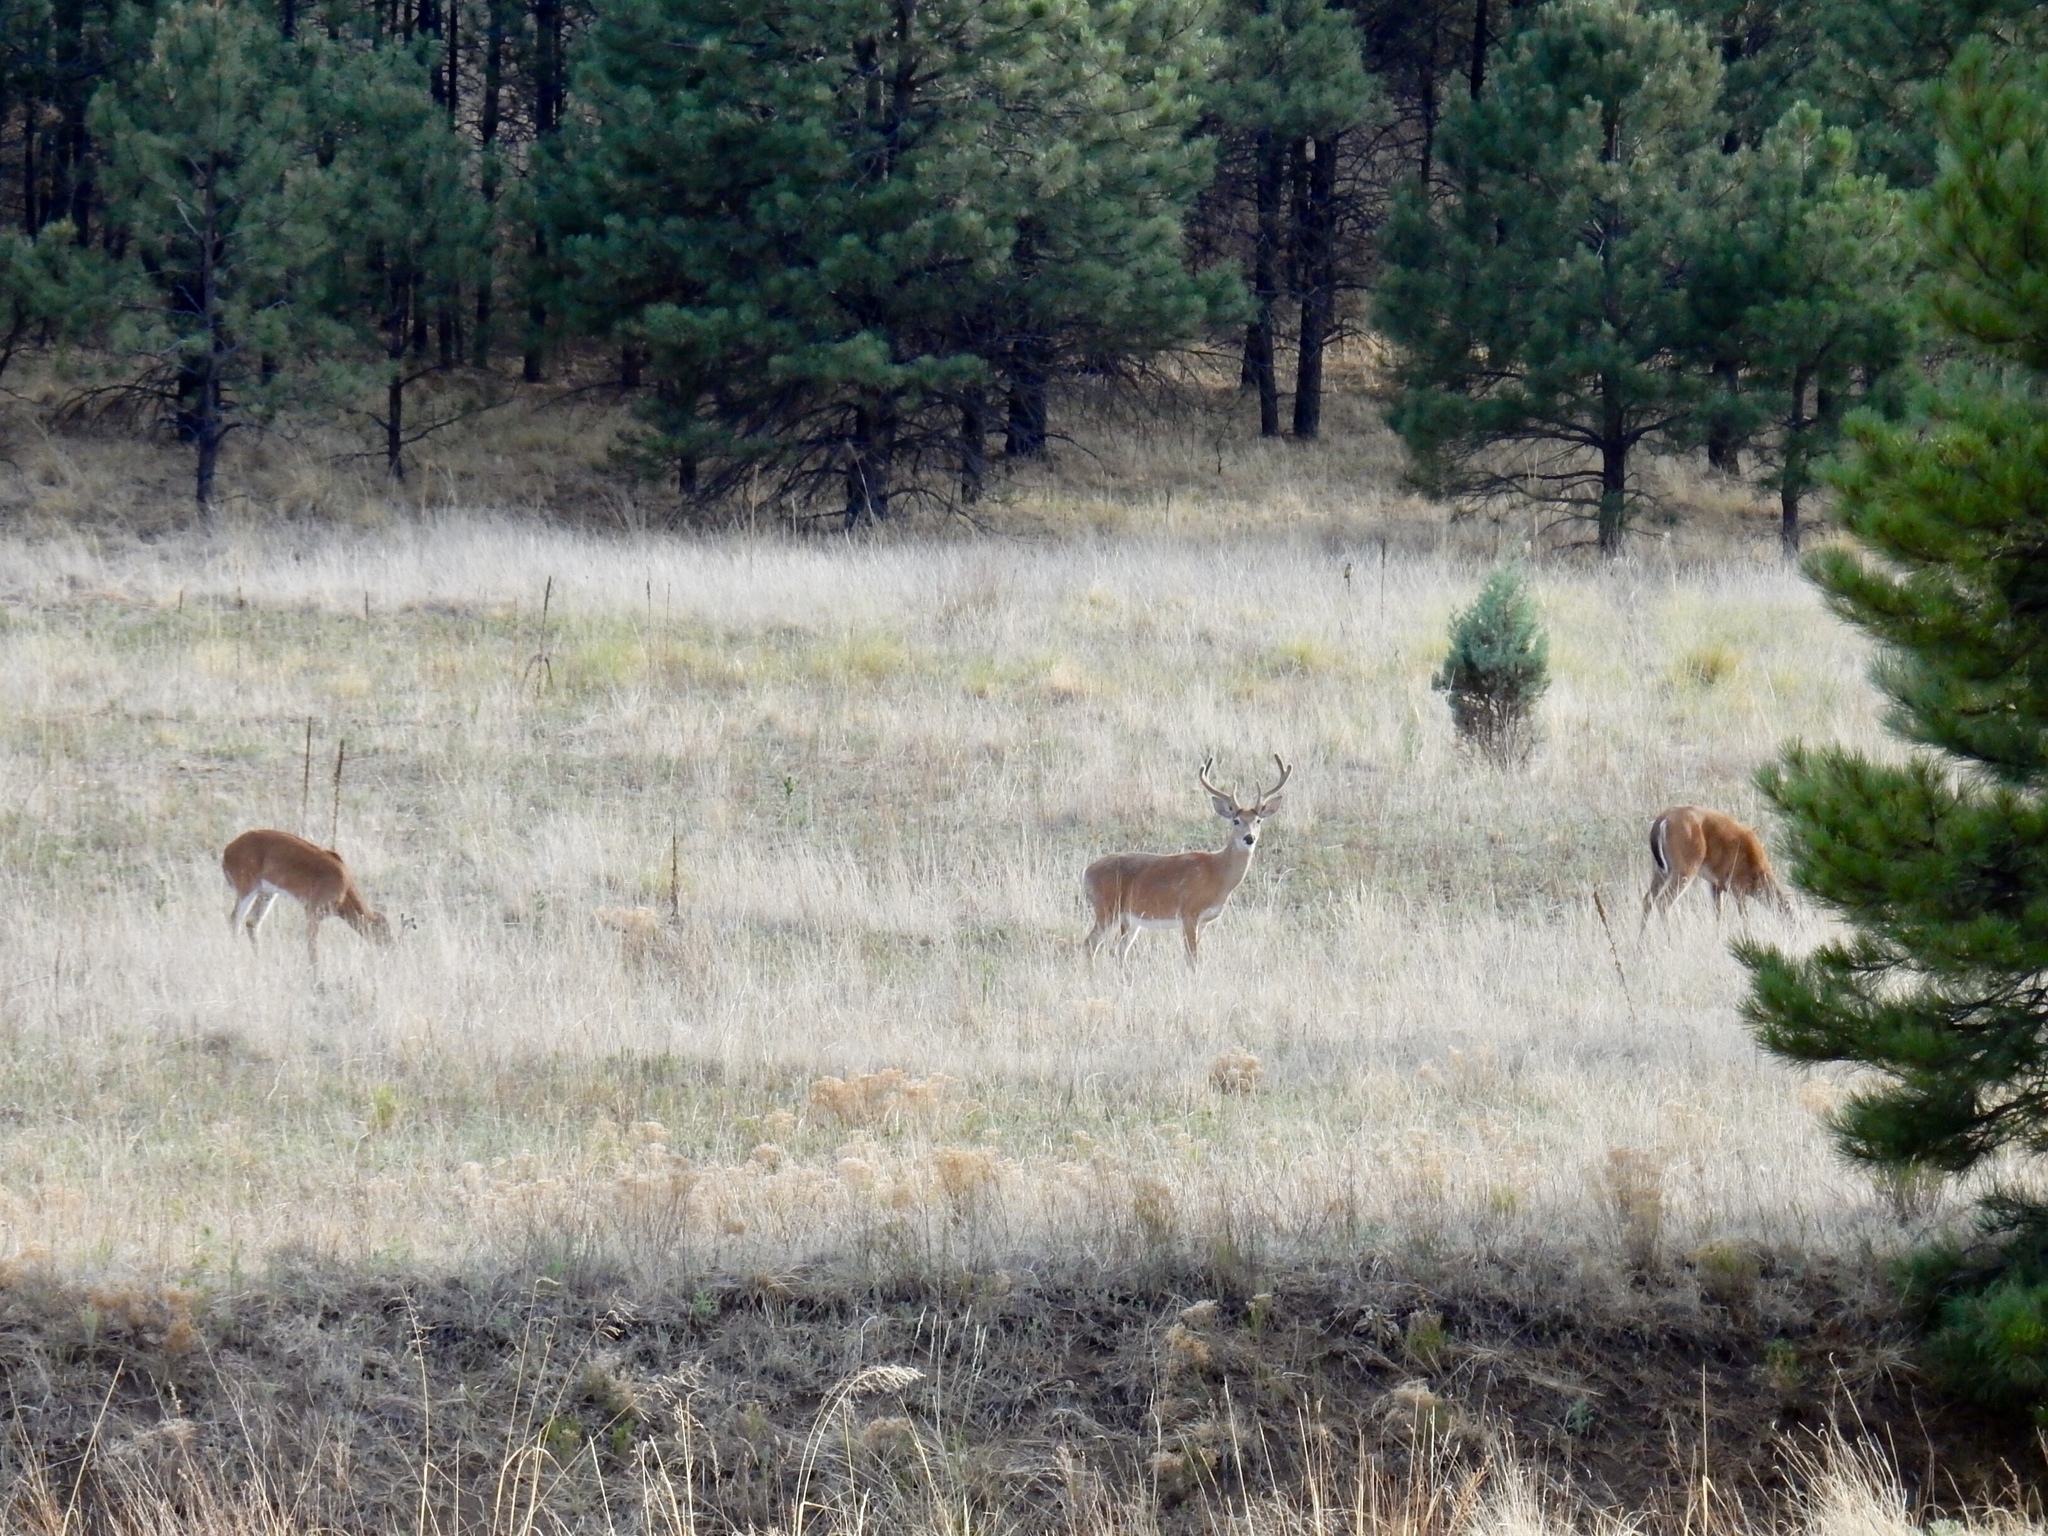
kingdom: Animalia
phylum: Chordata
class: Mammalia
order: Artiodactyla
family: Cervidae
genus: Odocoileus
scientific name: Odocoileus virginianus
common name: White-tailed deer
